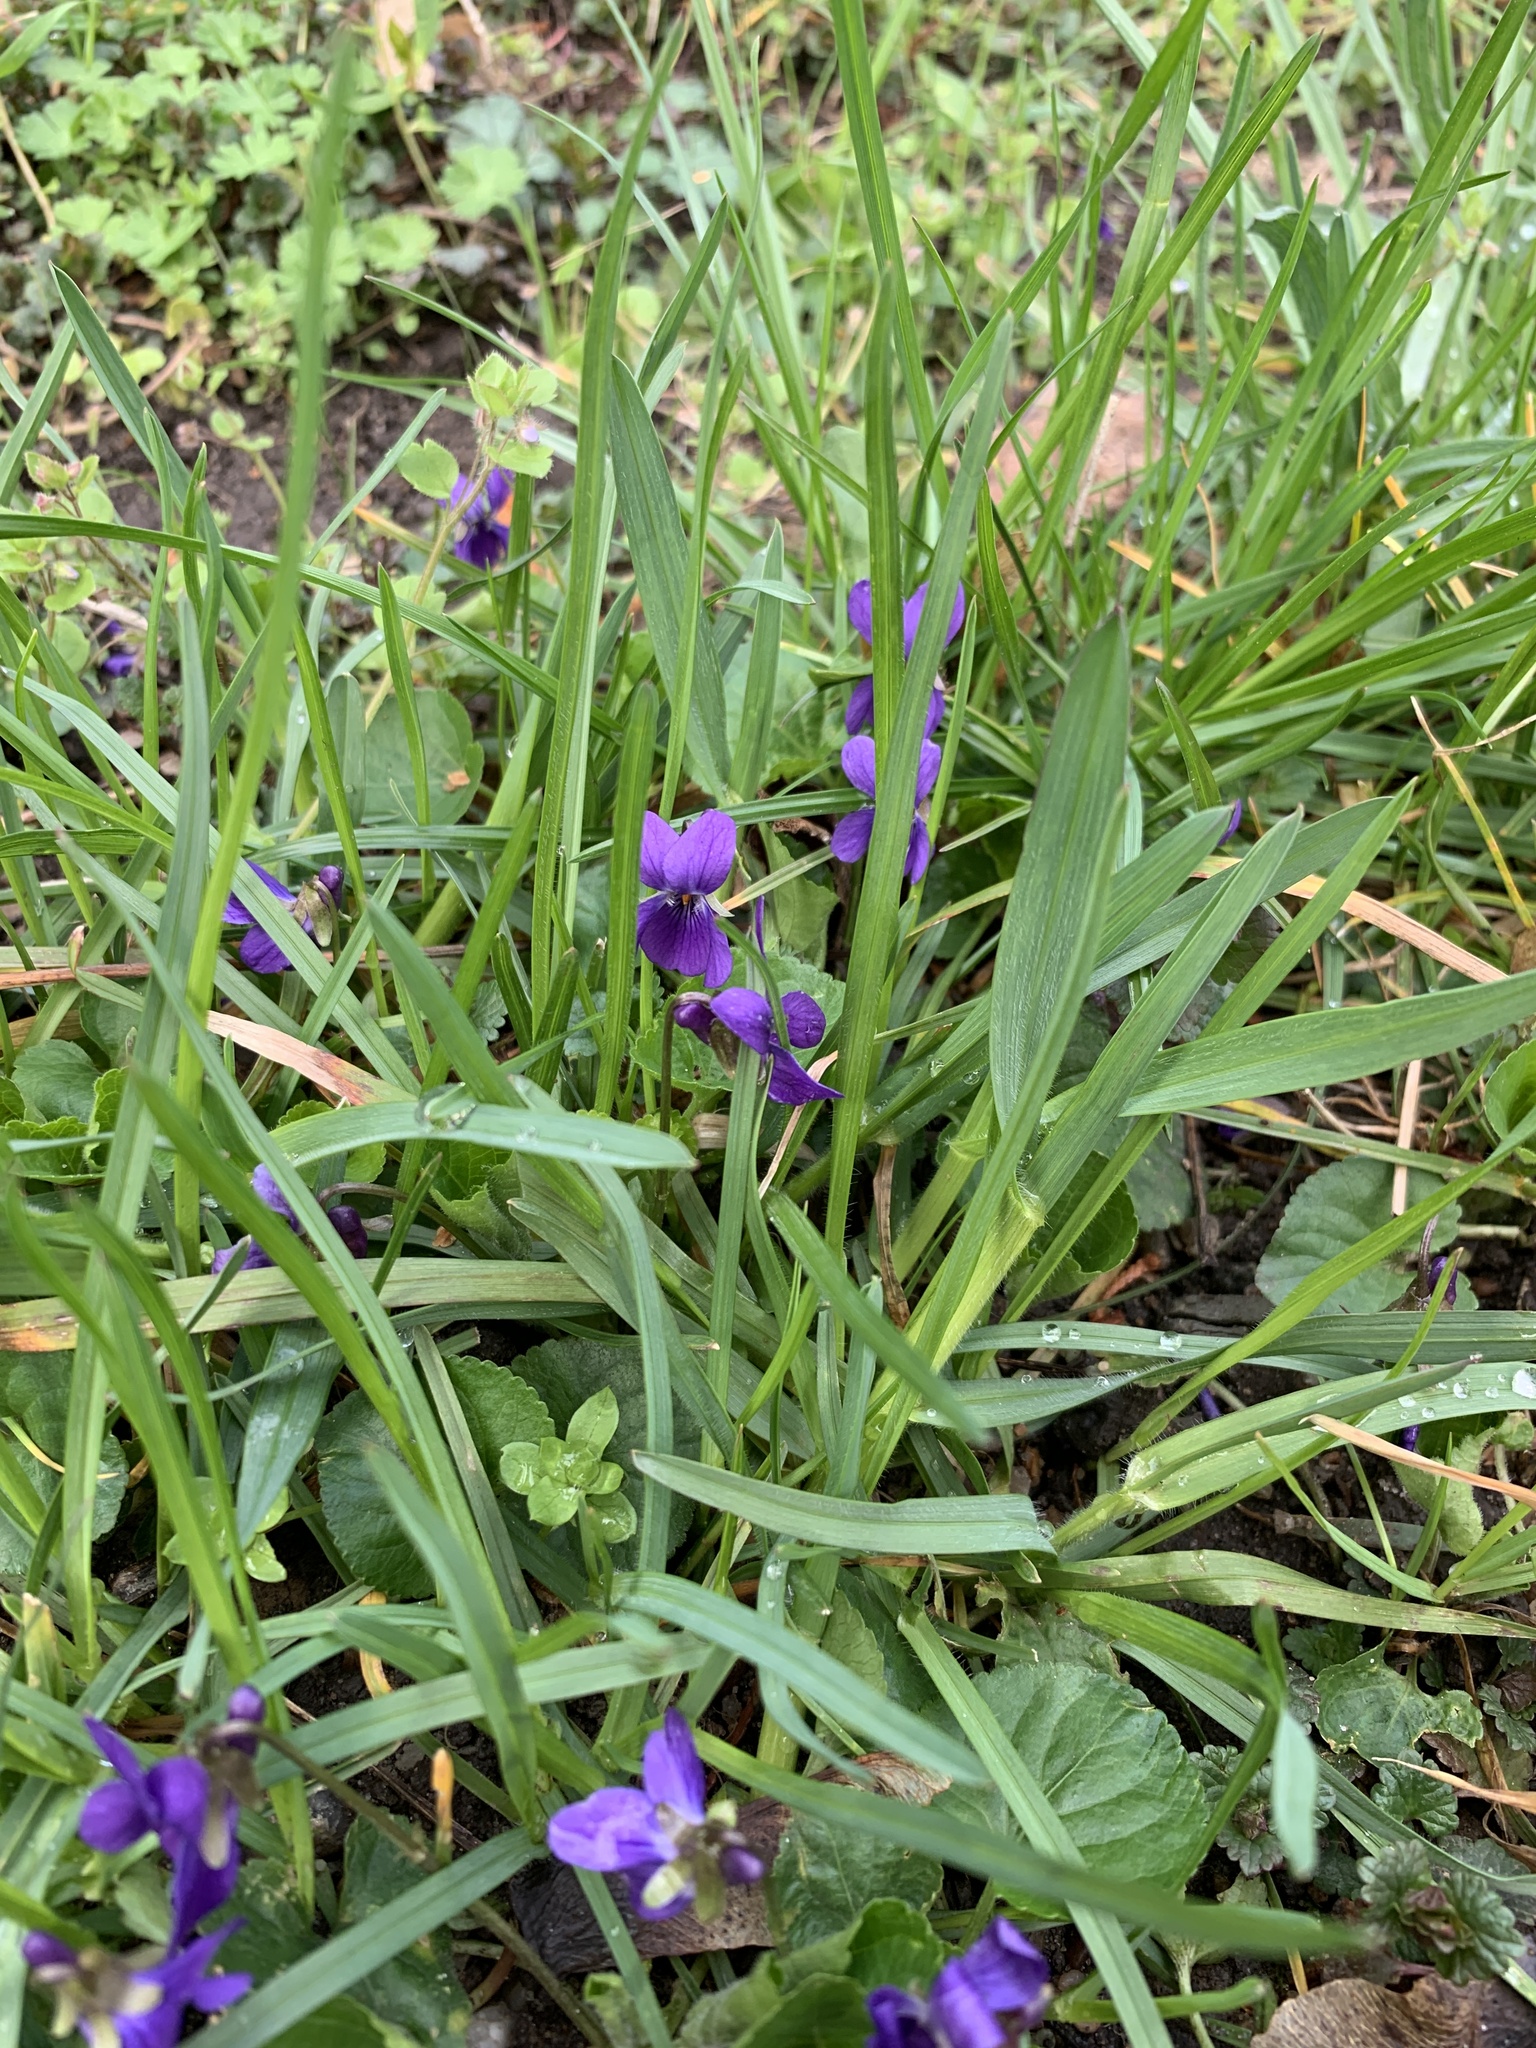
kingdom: Plantae
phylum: Tracheophyta
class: Magnoliopsida
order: Malpighiales
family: Violaceae
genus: Viola
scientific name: Viola odorata
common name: Sweet violet
